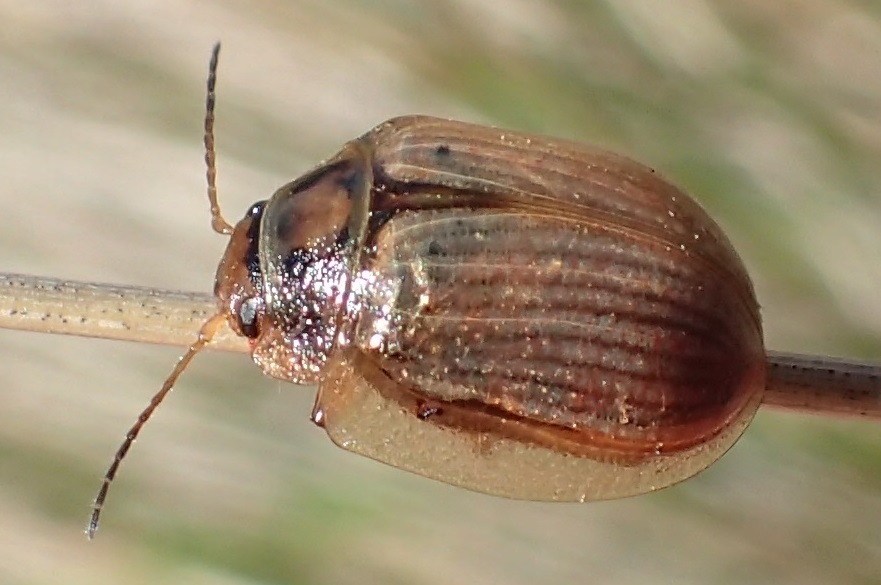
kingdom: Animalia
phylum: Arthropoda
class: Insecta
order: Coleoptera
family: Chrysomelidae
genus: Paropsisterna
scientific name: Paropsisterna bimaculata
